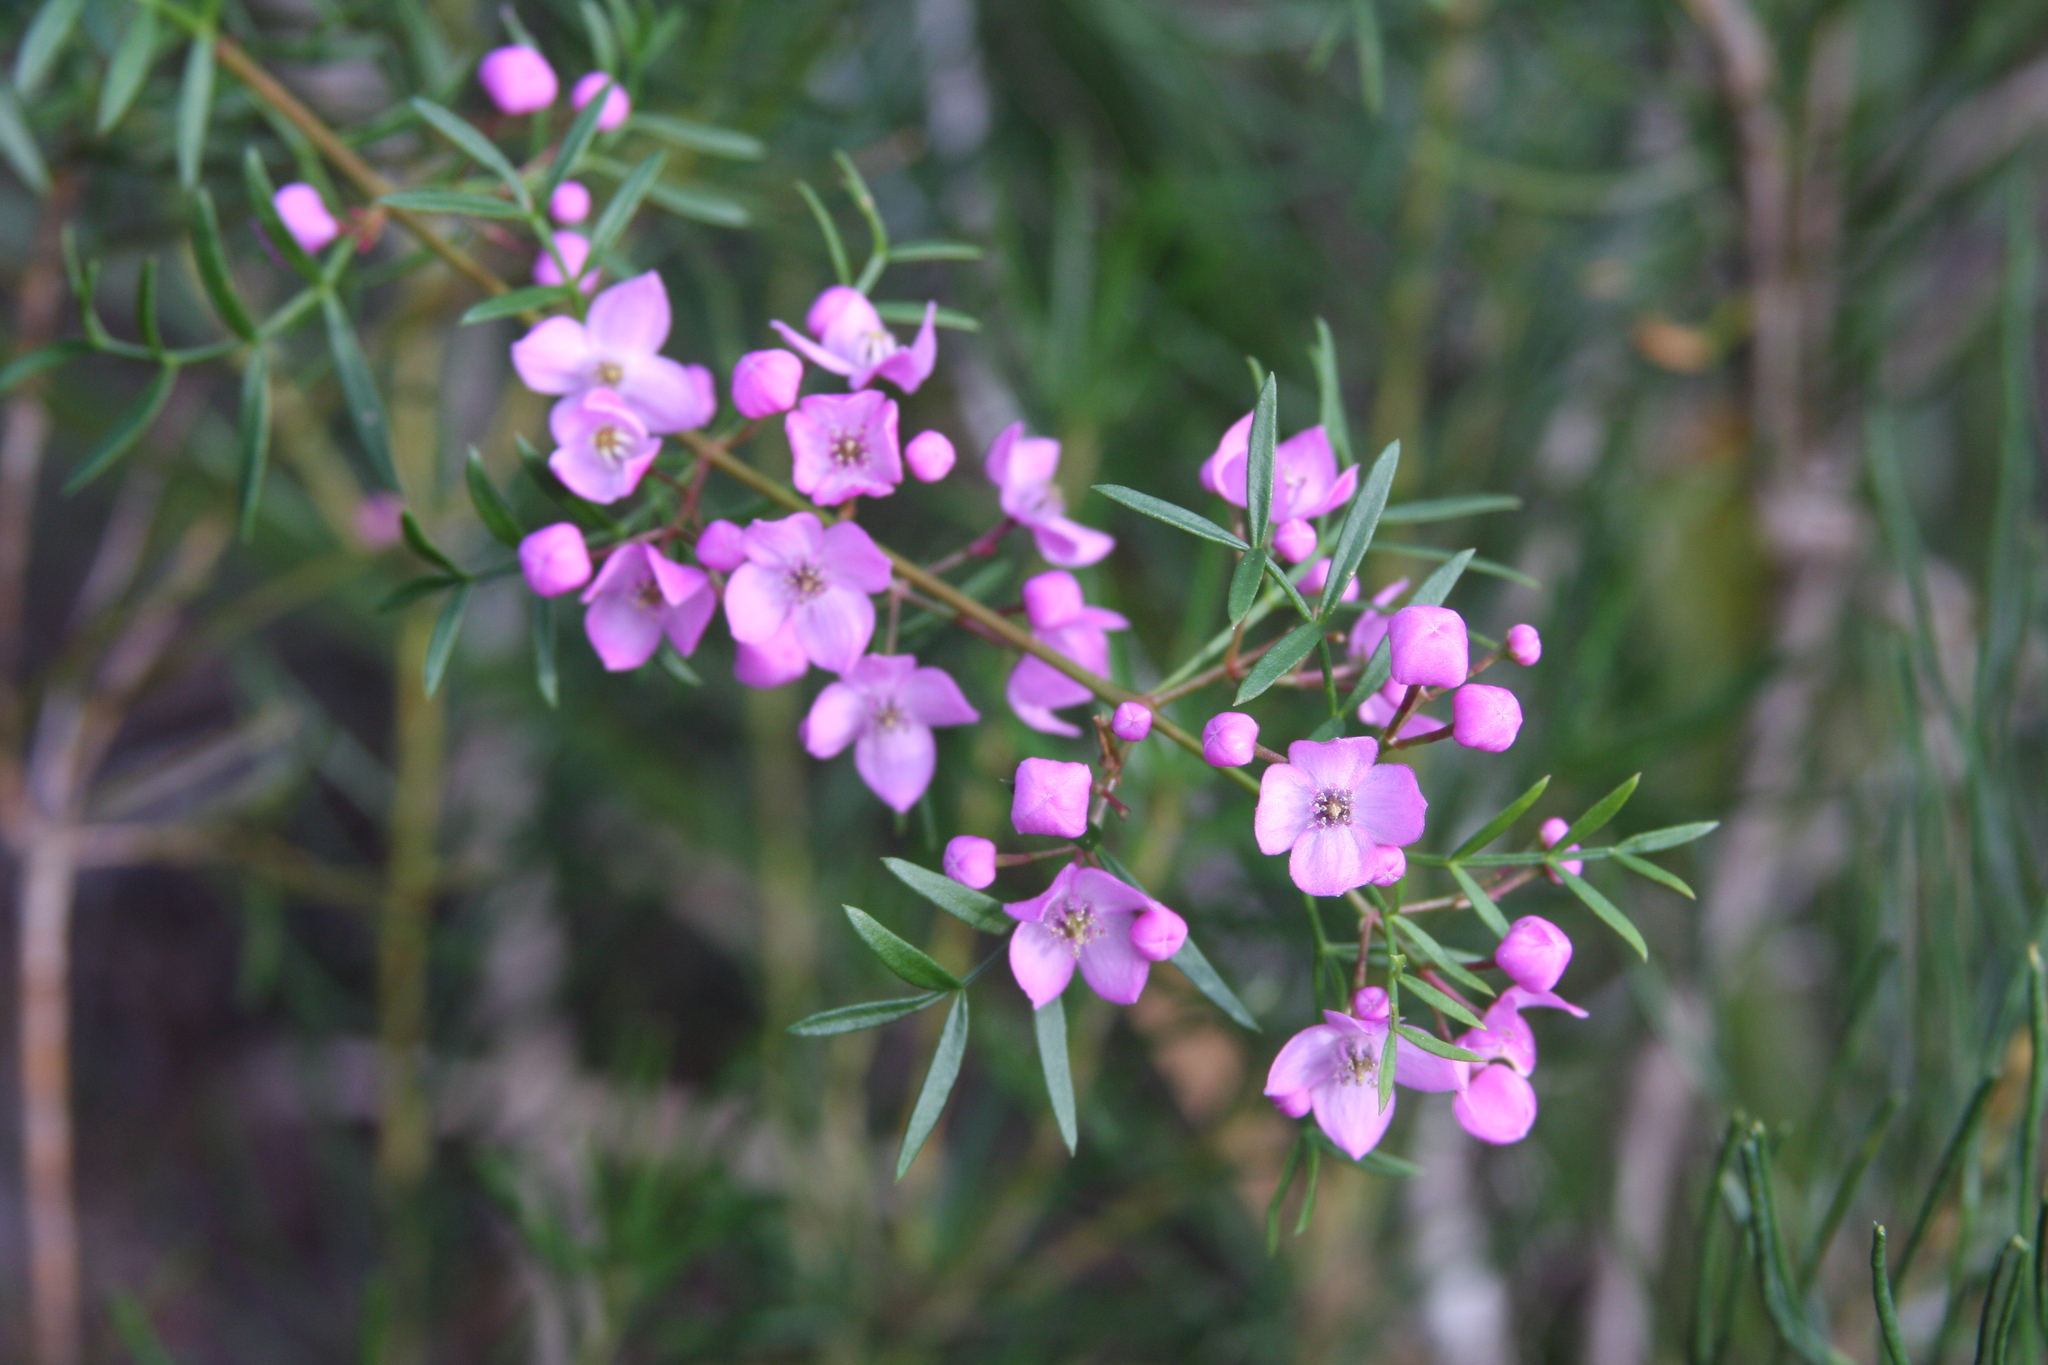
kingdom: Plantae
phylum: Tracheophyta
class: Magnoliopsida
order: Sapindales
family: Rutaceae
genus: Boronia
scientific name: Boronia pinnata
